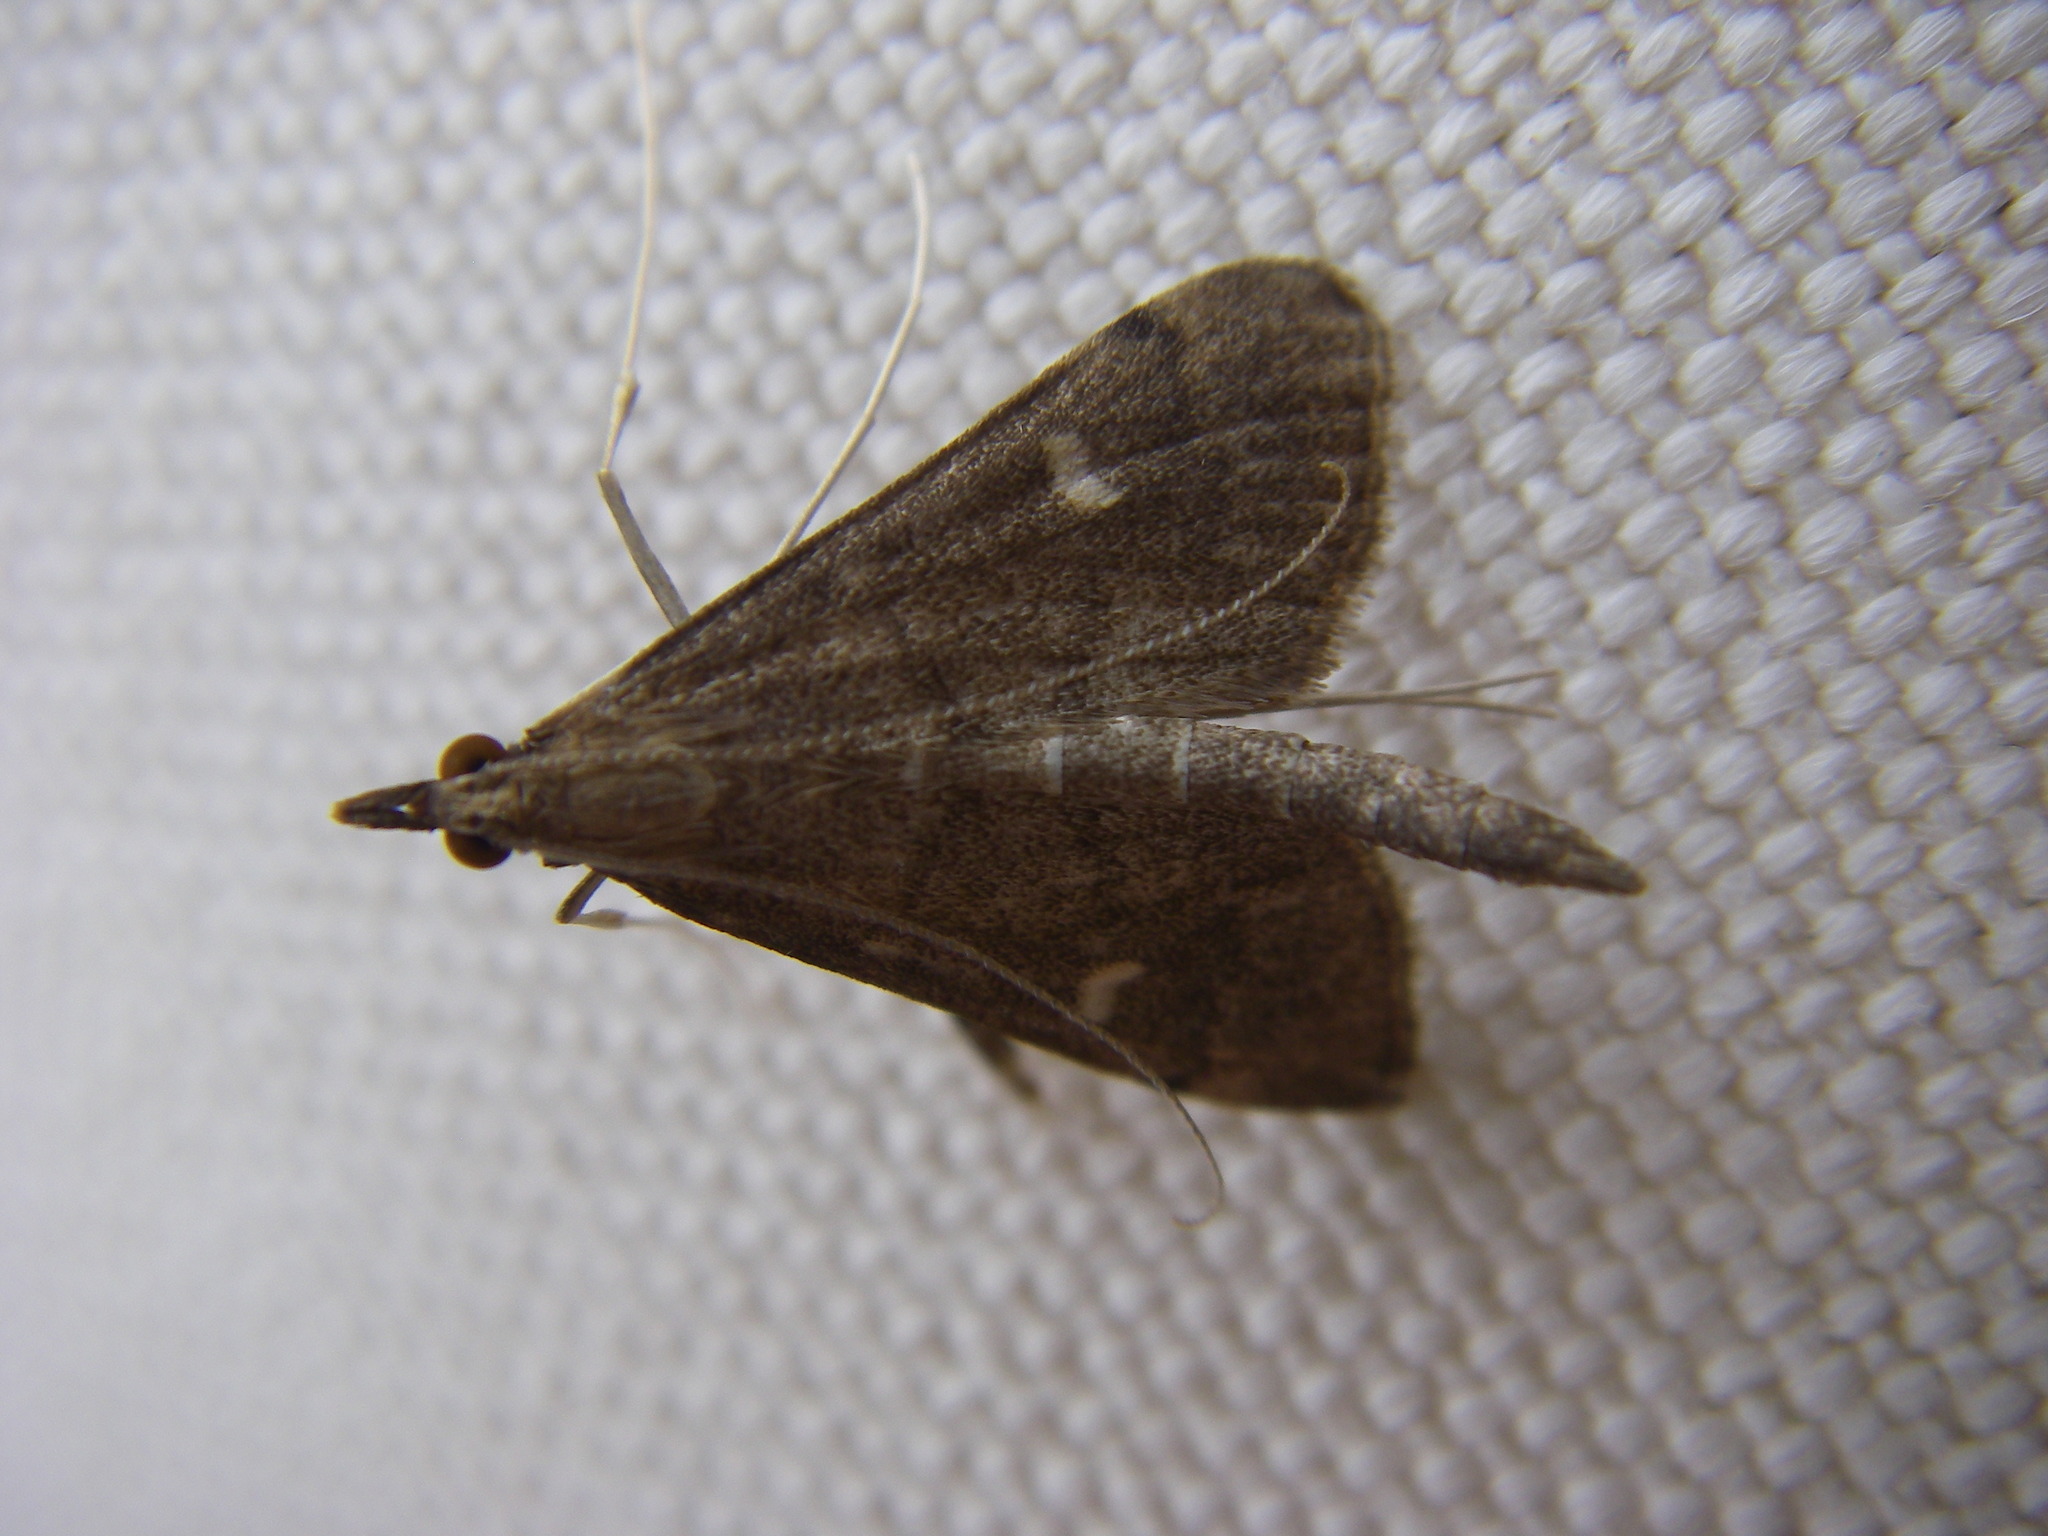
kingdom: Animalia
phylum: Arthropoda
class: Insecta
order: Lepidoptera
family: Crambidae
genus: Stenia
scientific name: Stenia Dolicharthria punctalis
